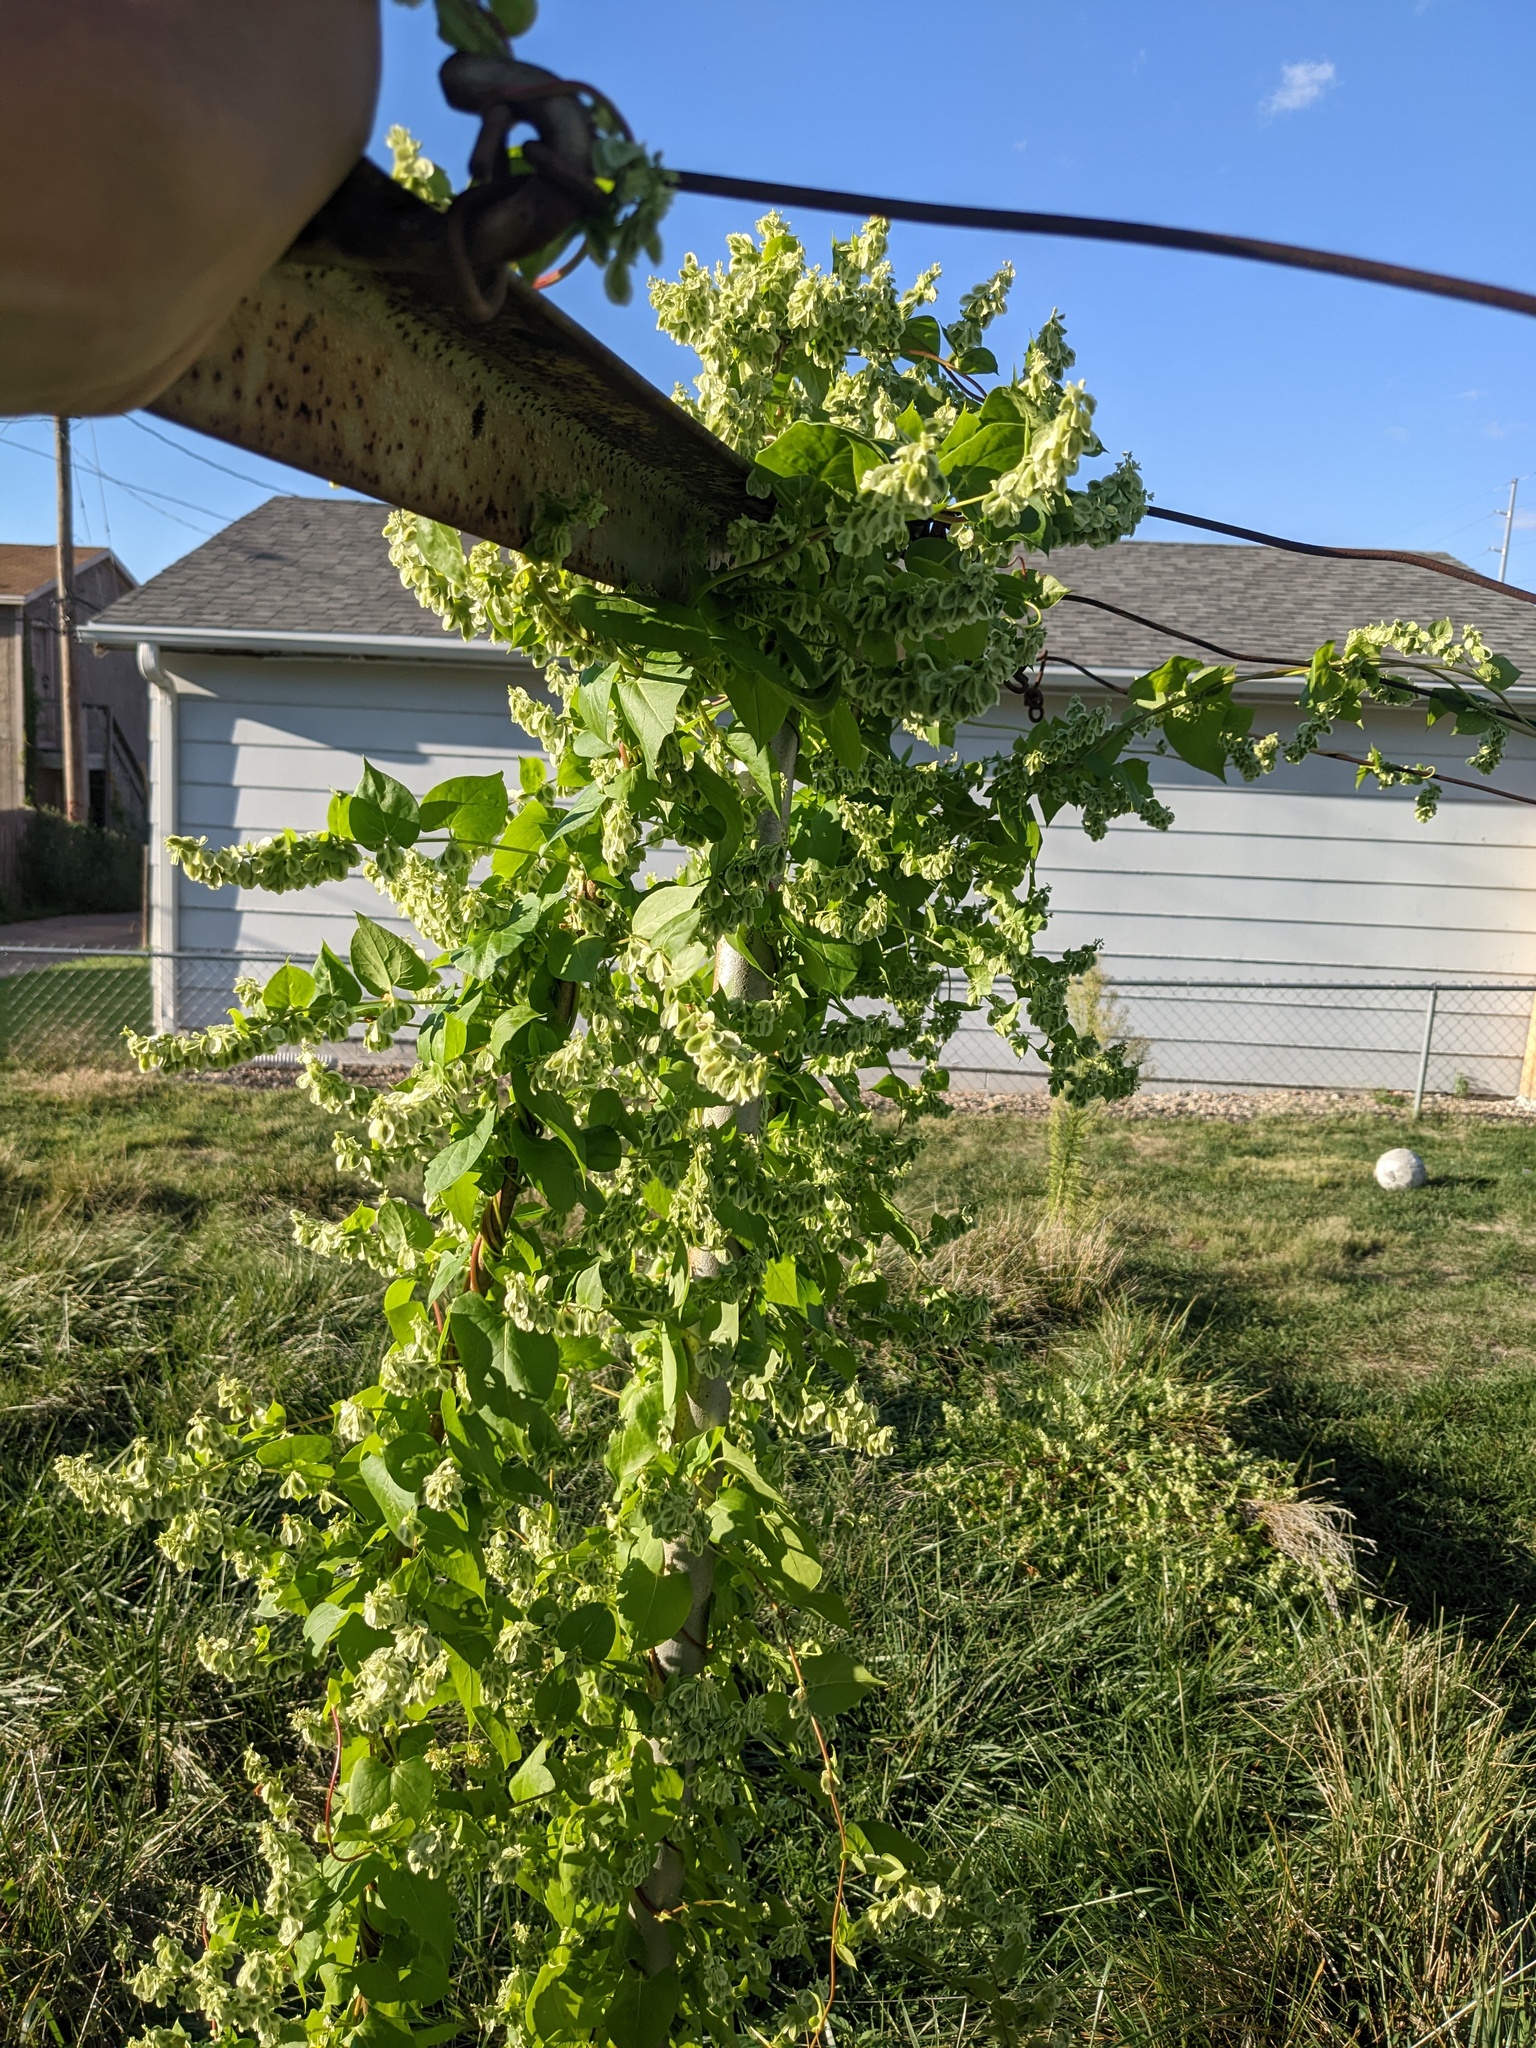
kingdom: Plantae
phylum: Tracheophyta
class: Magnoliopsida
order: Caryophyllales
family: Polygonaceae
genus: Fallopia
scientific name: Fallopia scandens
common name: Climbing false buckwheat
